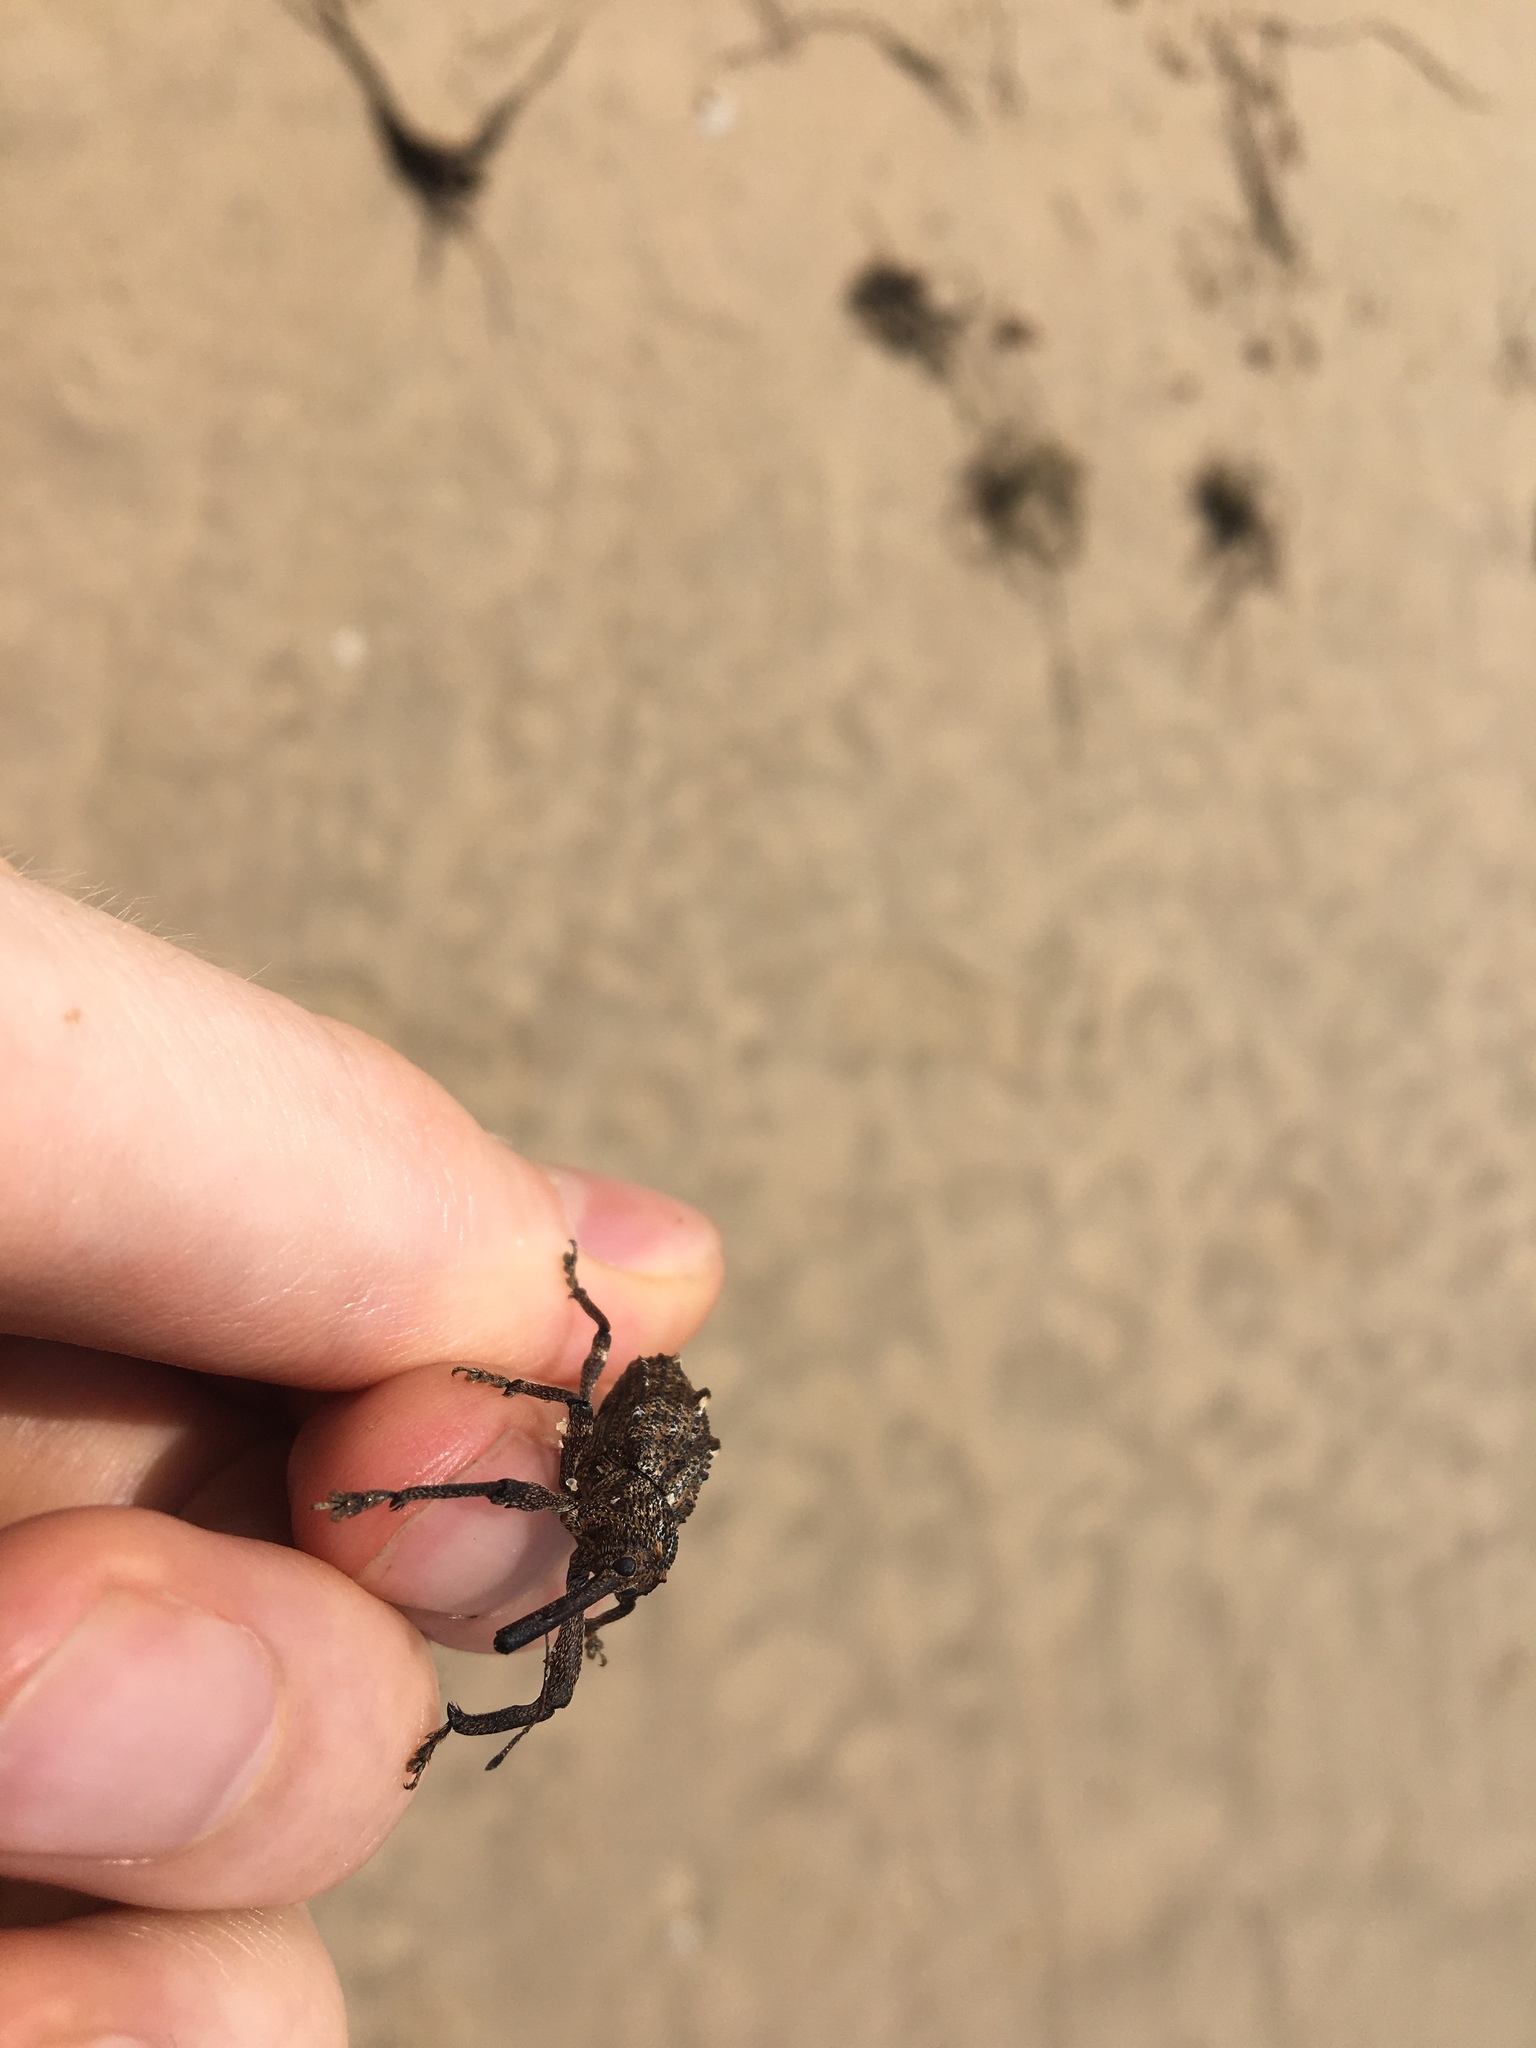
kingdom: Animalia
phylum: Arthropoda
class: Insecta
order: Coleoptera
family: Curculionidae
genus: Orthorhinus
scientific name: Orthorhinus cylindrirostris
